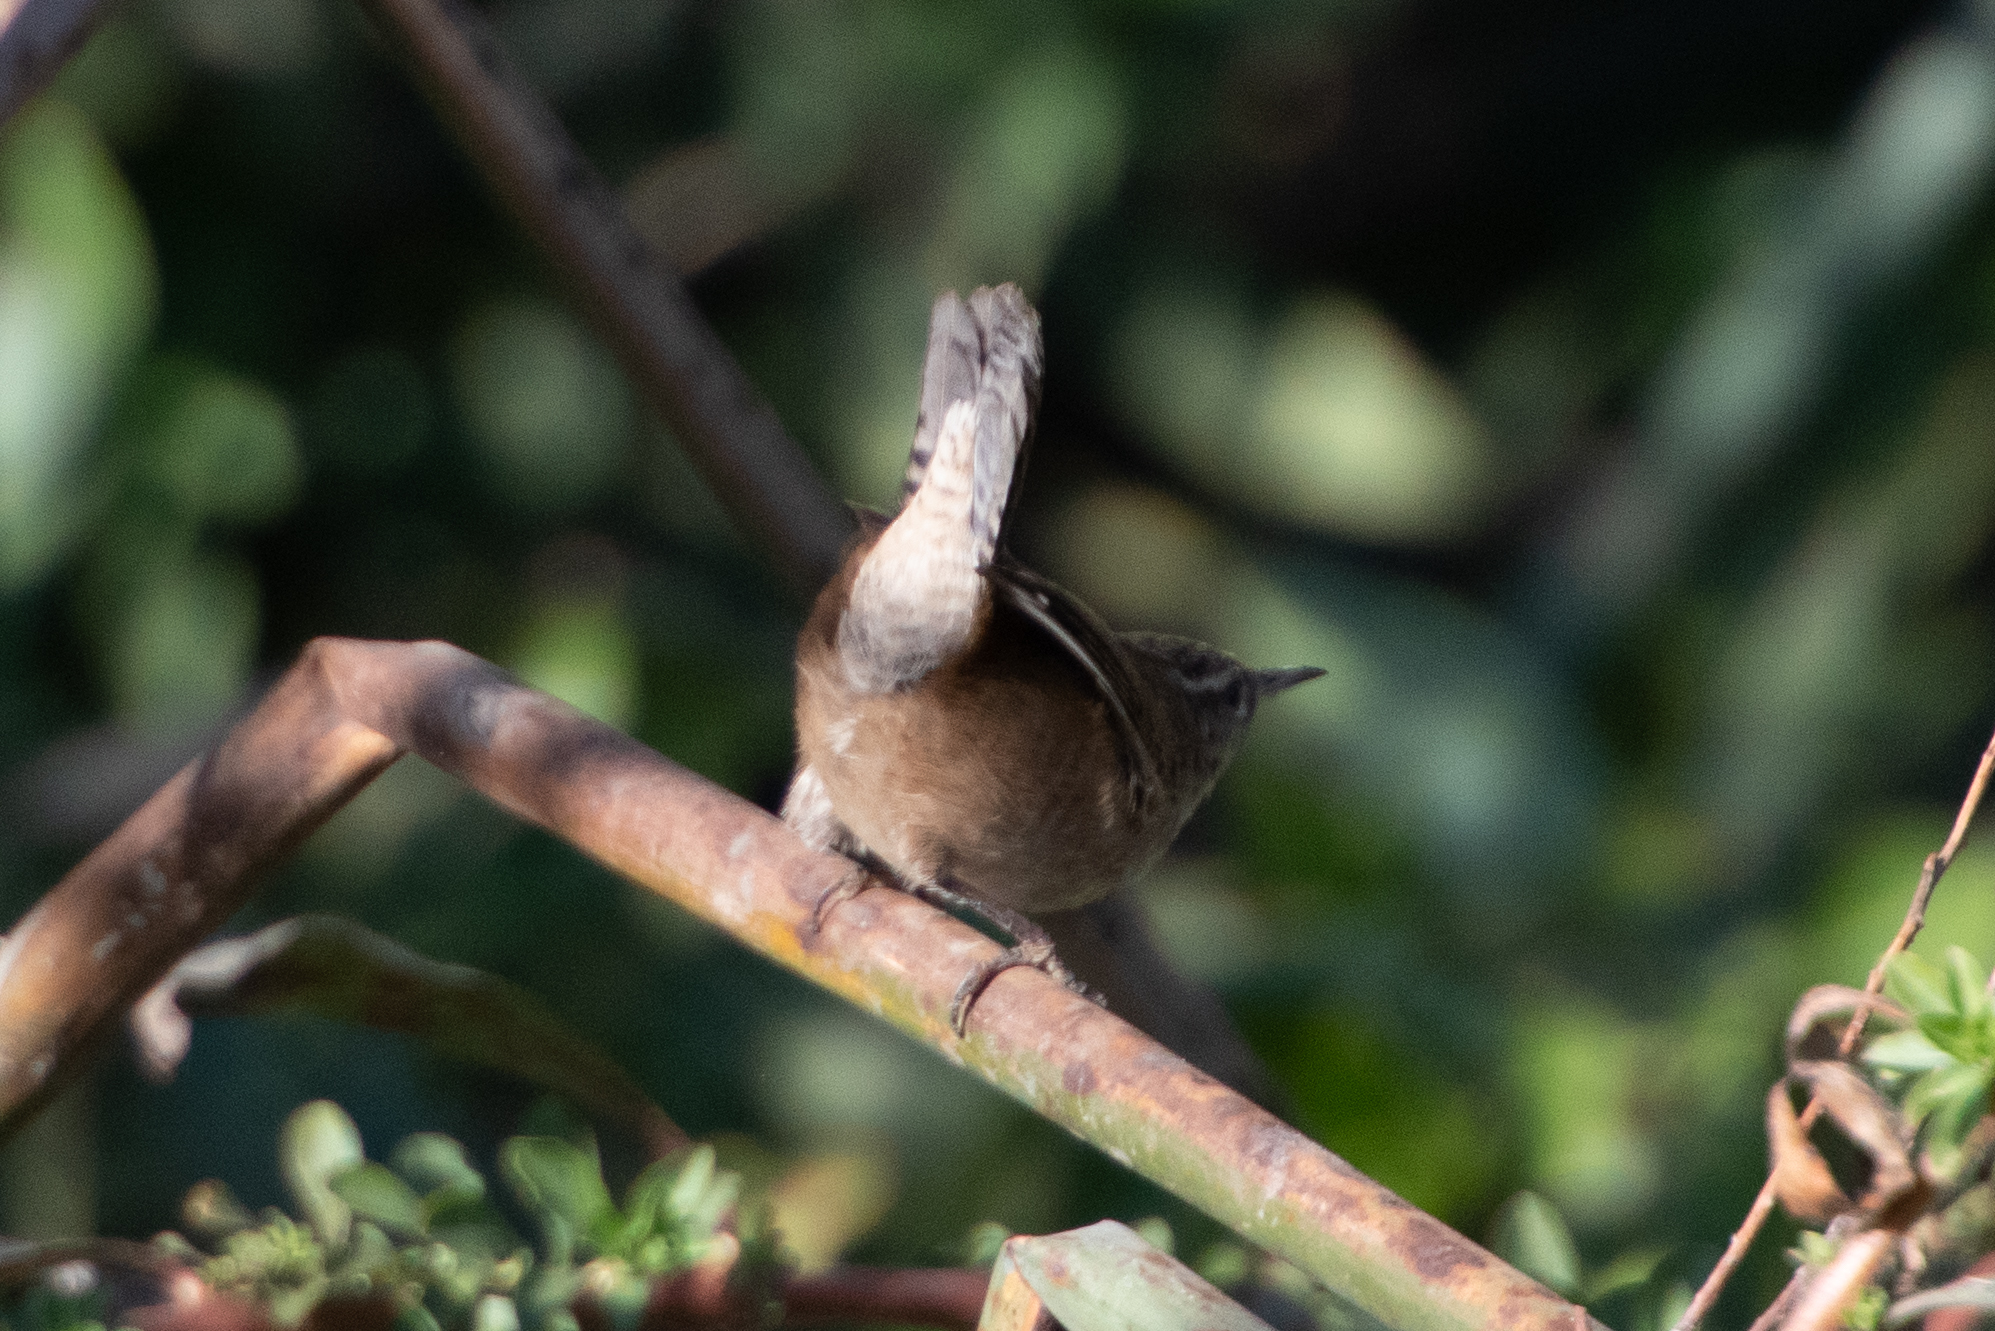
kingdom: Animalia
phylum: Chordata
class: Aves
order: Passeriformes
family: Troglodytidae
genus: Cistothorus
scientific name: Cistothorus palustris
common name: Marsh wren
